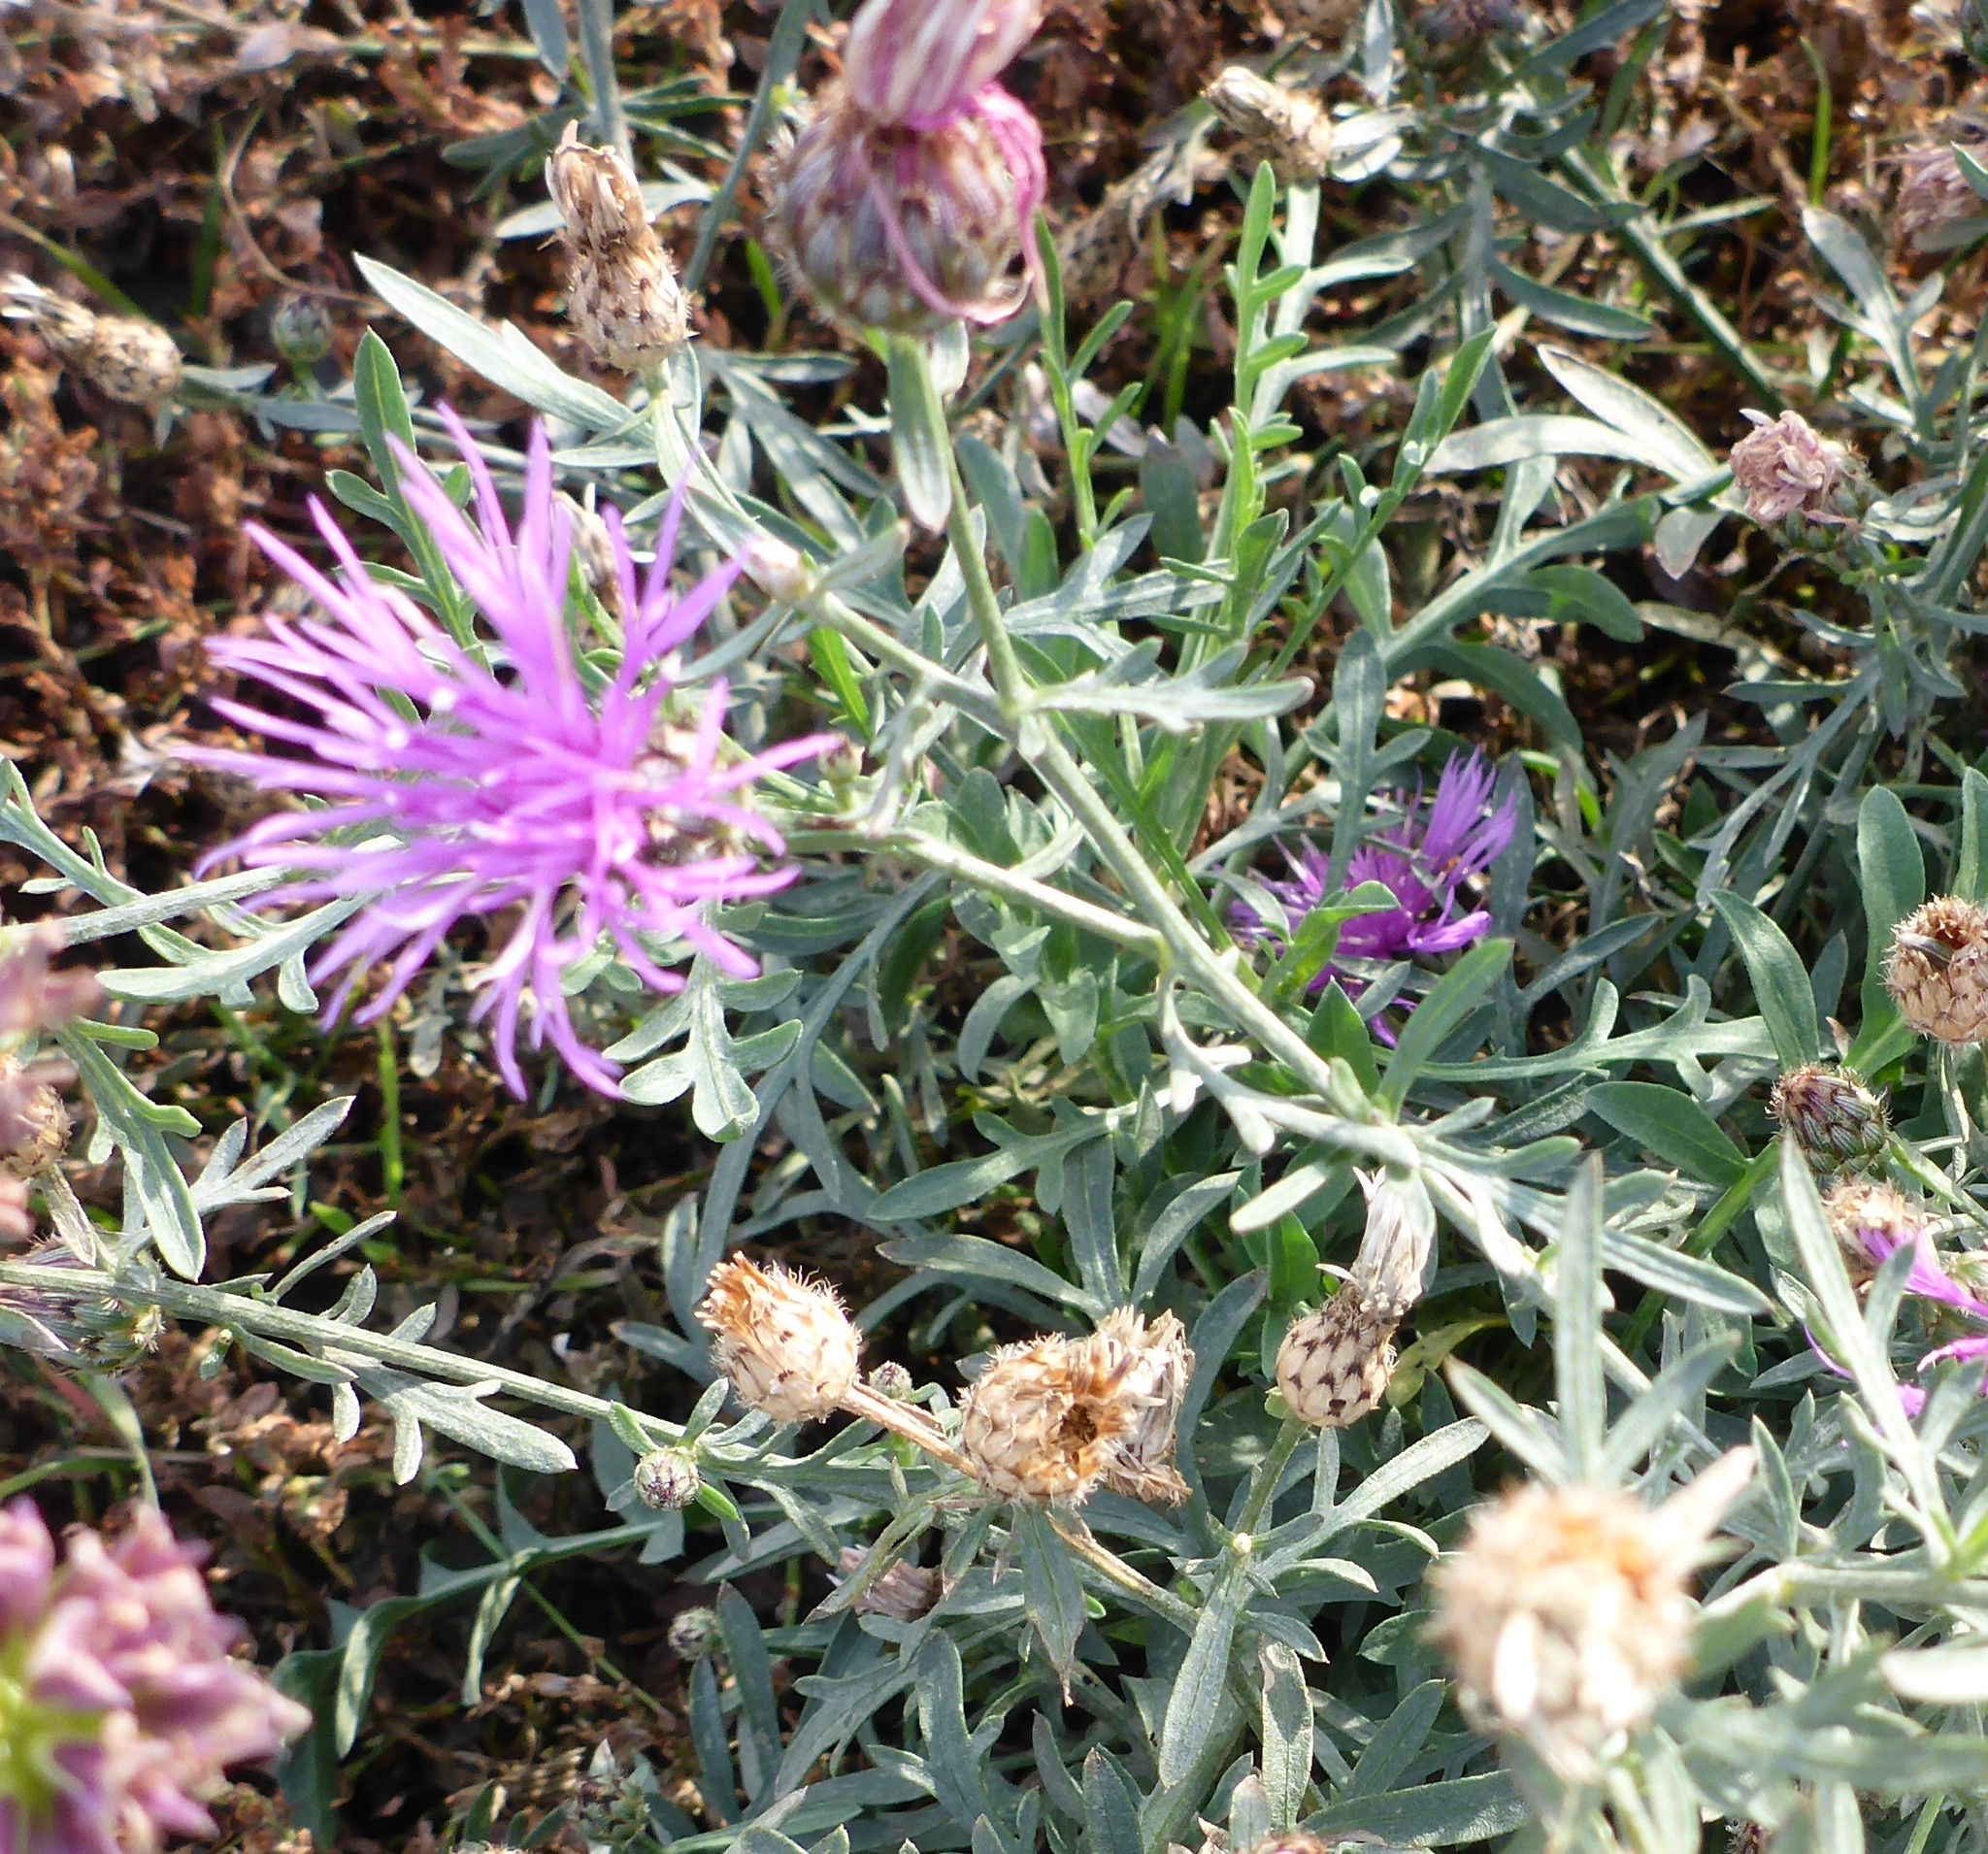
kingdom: Plantae
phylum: Tracheophyta
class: Magnoliopsida
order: Asterales
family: Asteraceae
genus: Centaurea
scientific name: Centaurea stoebe
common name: Spotted knapweed
